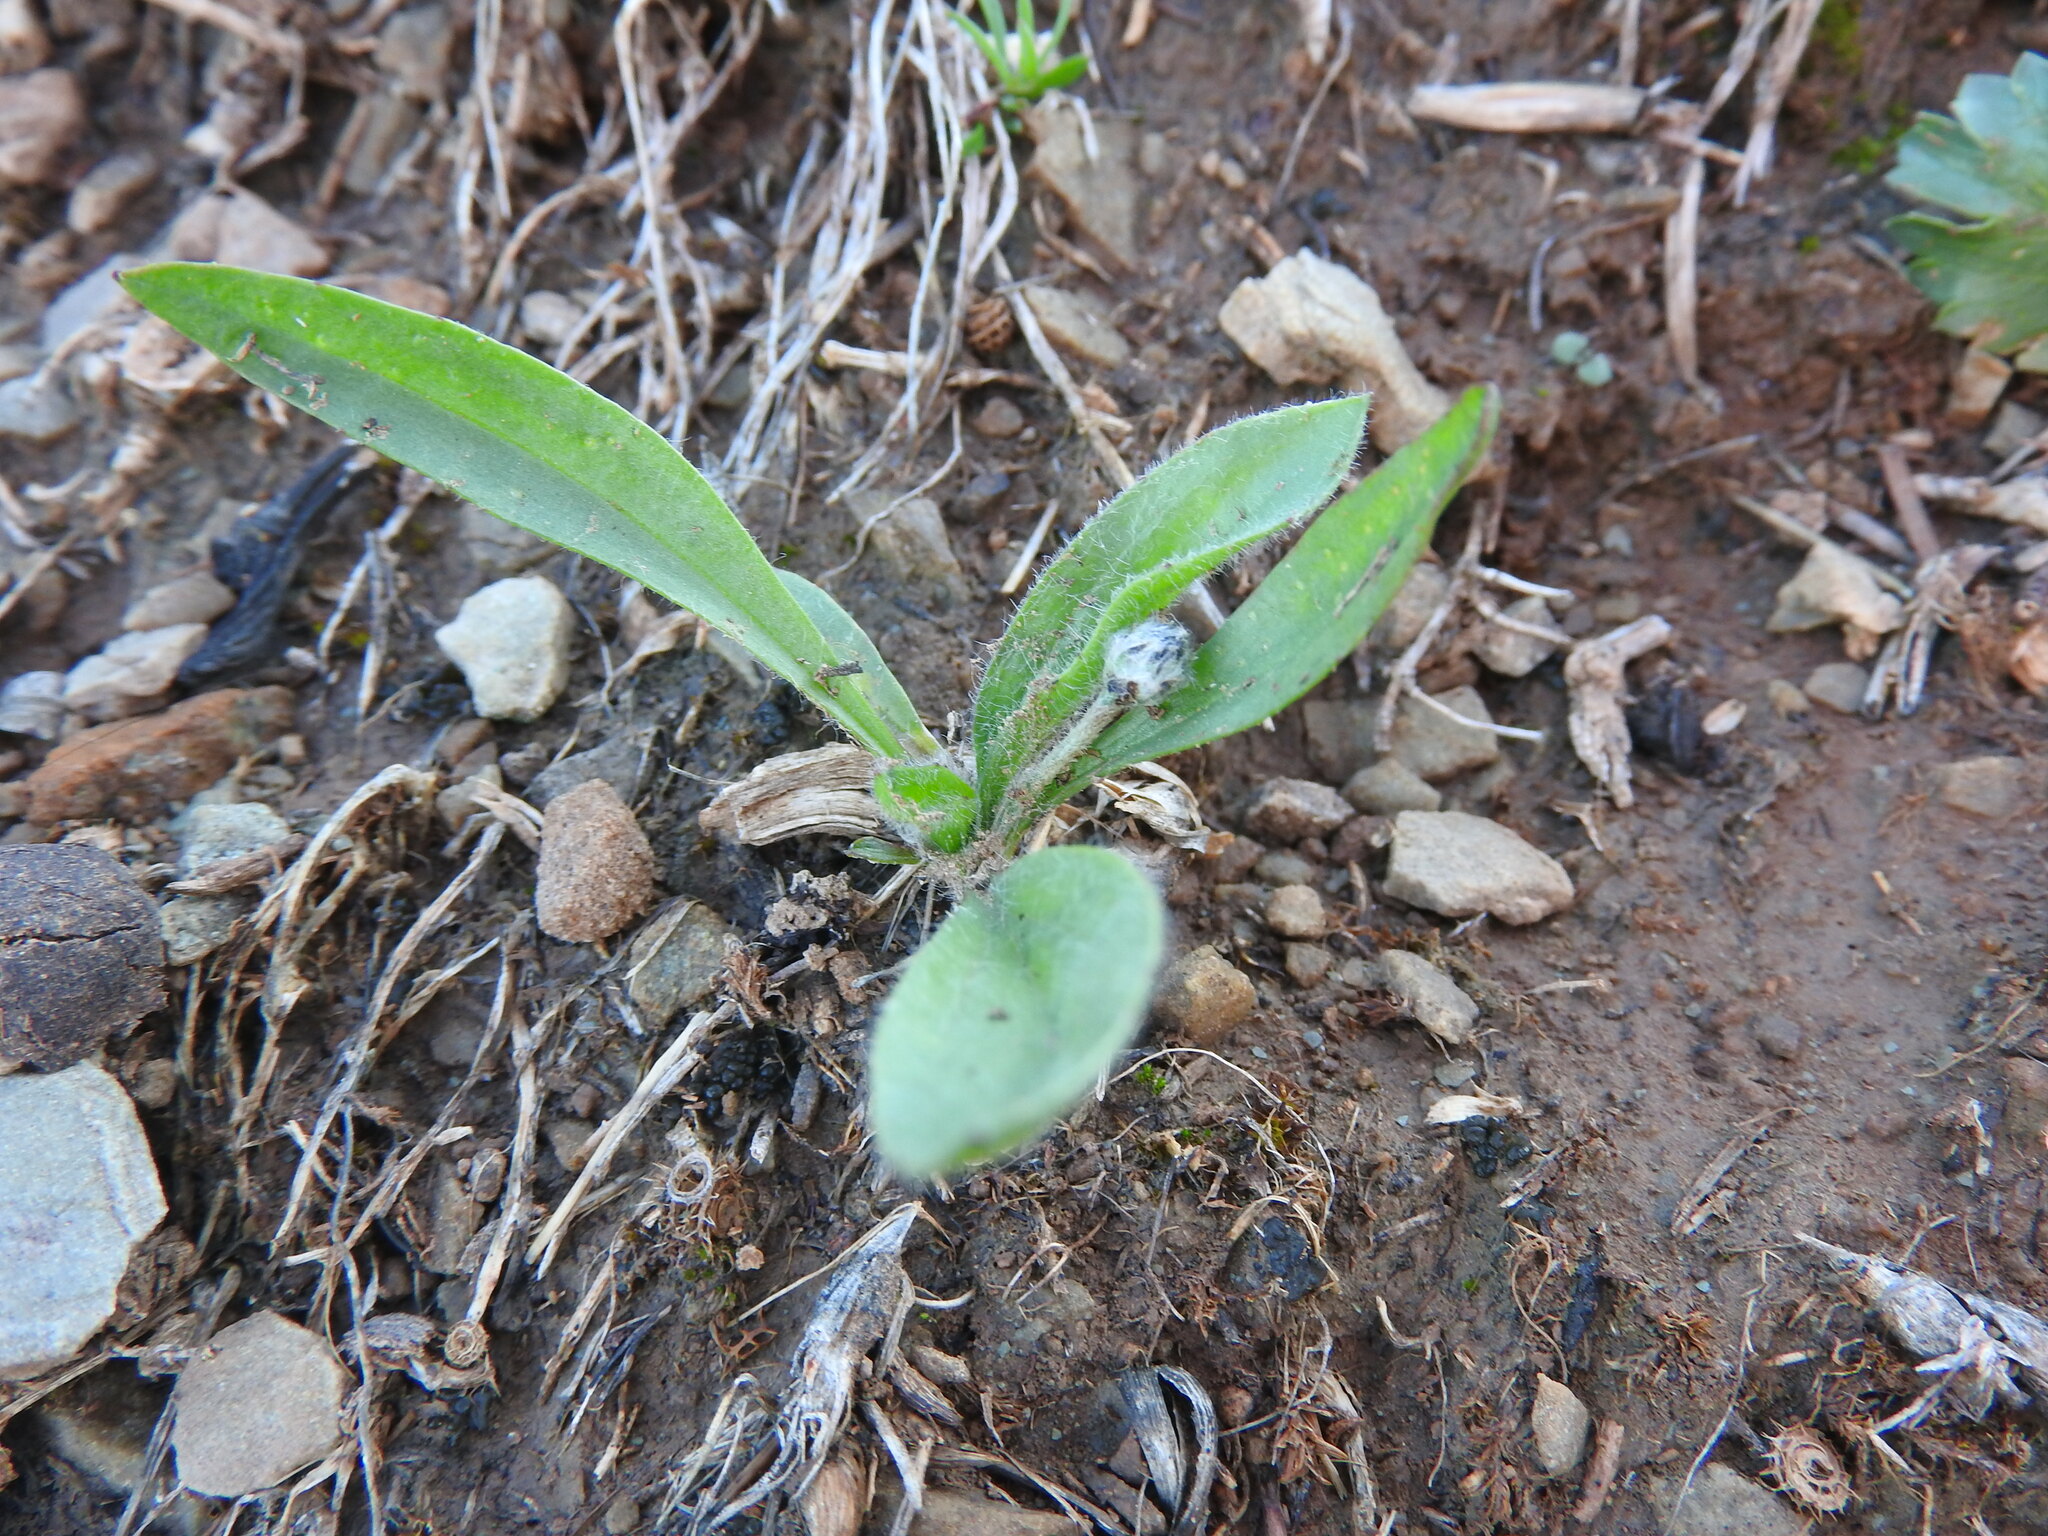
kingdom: Plantae
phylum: Tracheophyta
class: Magnoliopsida
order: Lamiales
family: Plantaginaceae
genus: Plantago
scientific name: Plantago lagopus
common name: Hare-foot plantain
